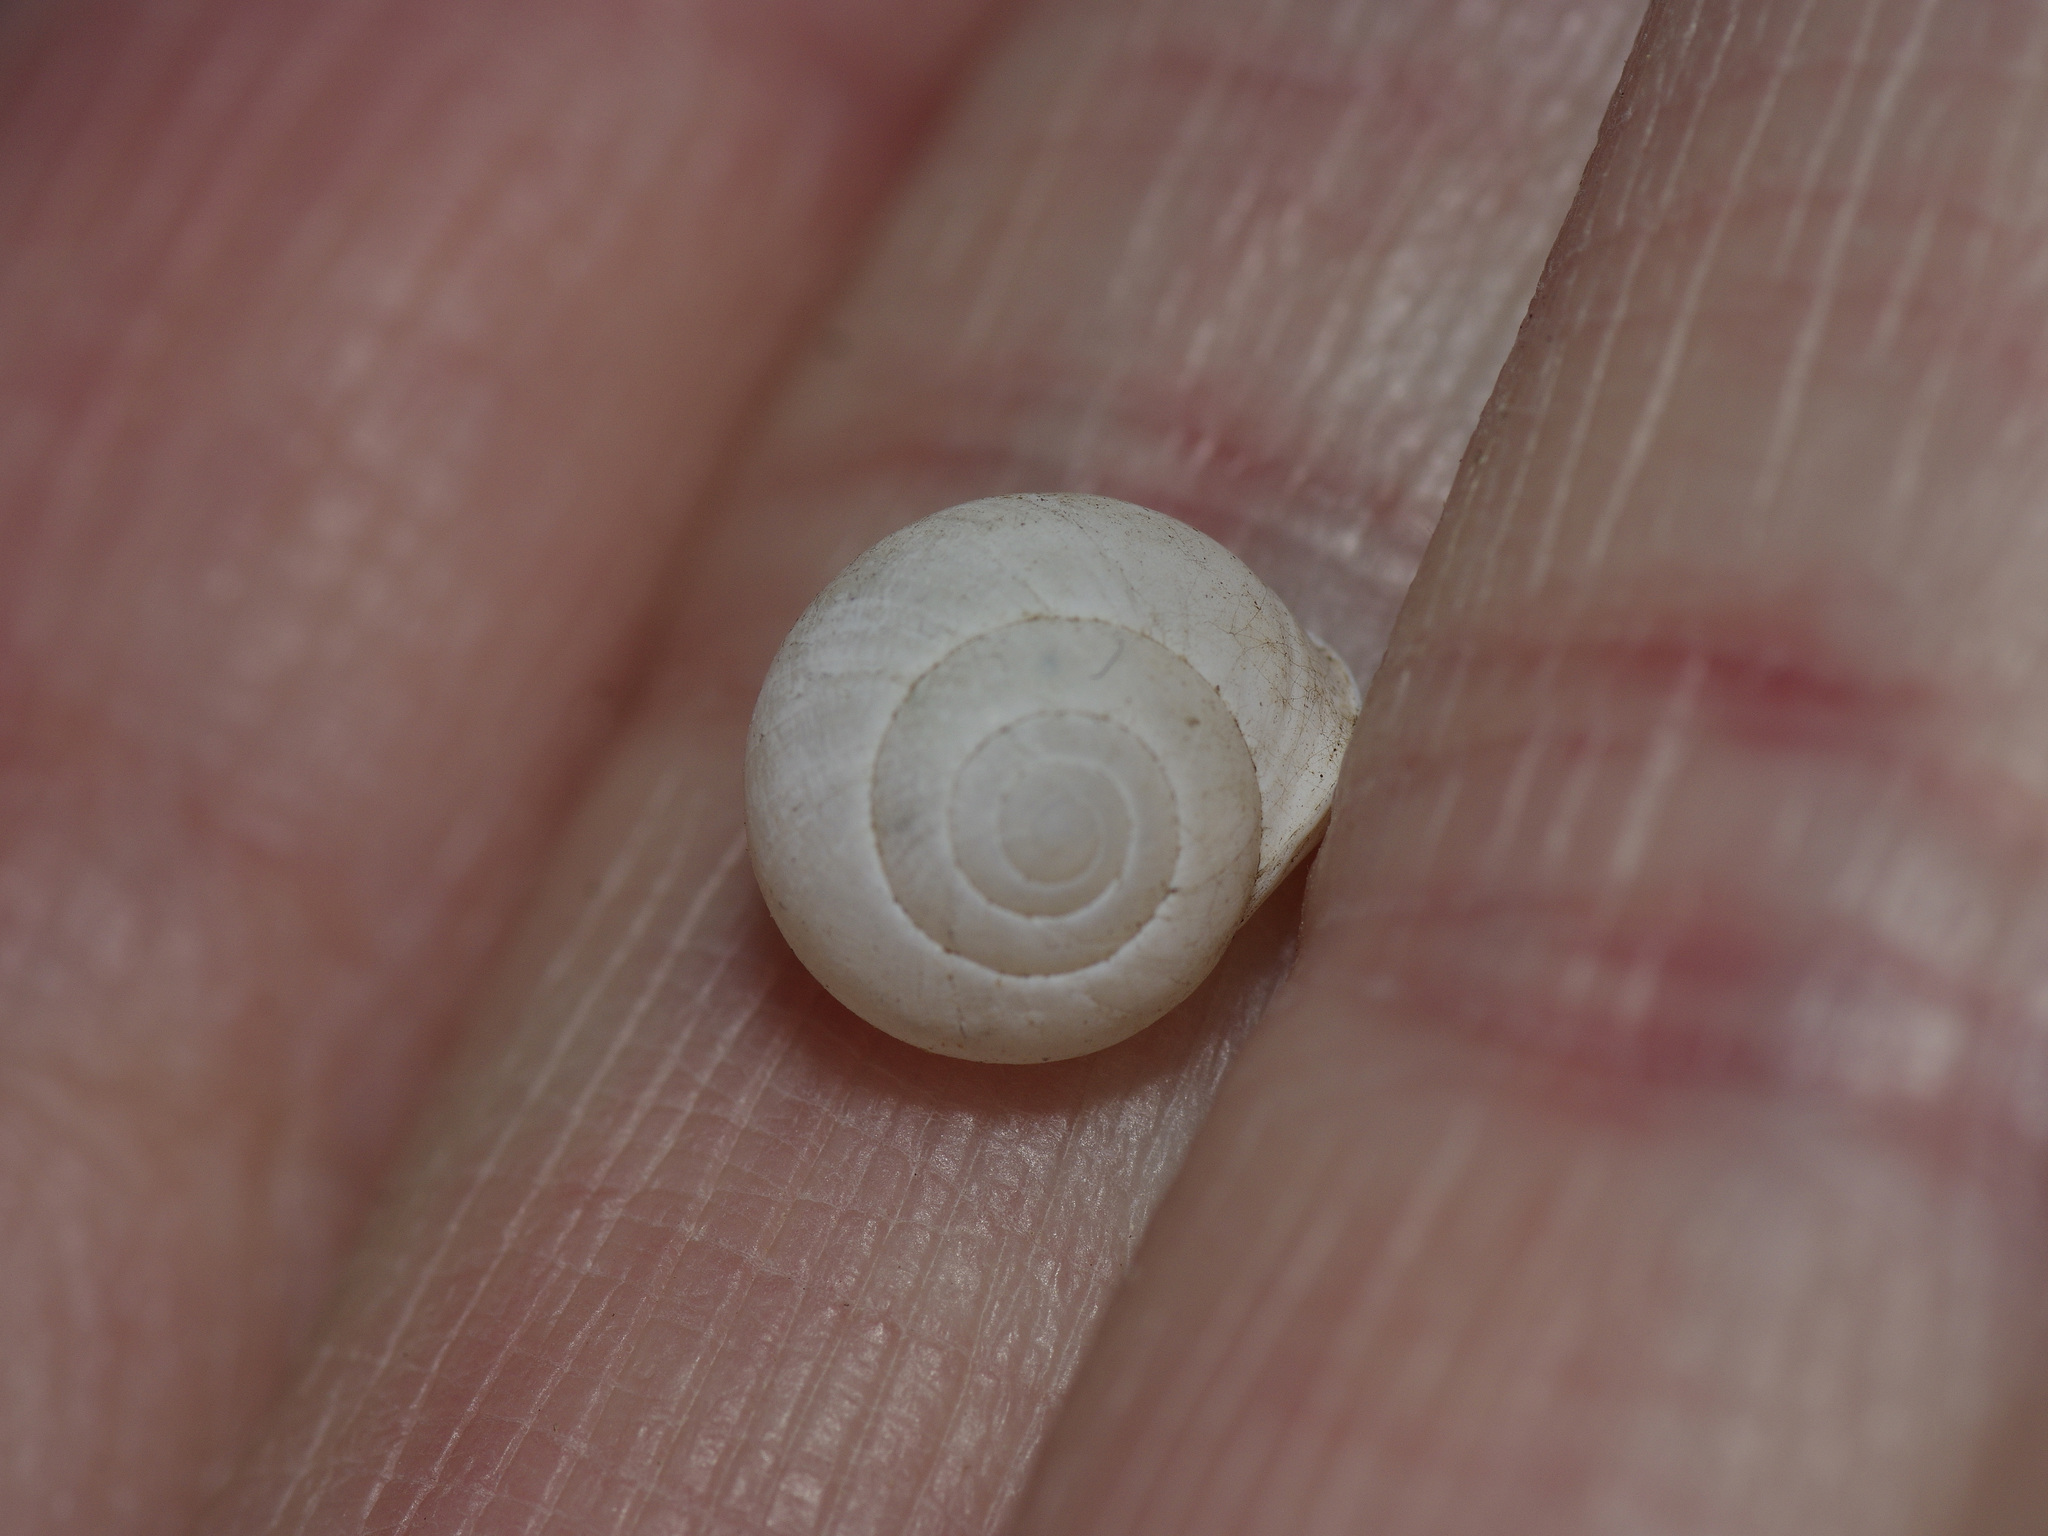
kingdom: Animalia
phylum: Mollusca
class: Gastropoda
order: Cycloneritida
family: Helicinidae
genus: Helicina
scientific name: Helicina orbiculata
